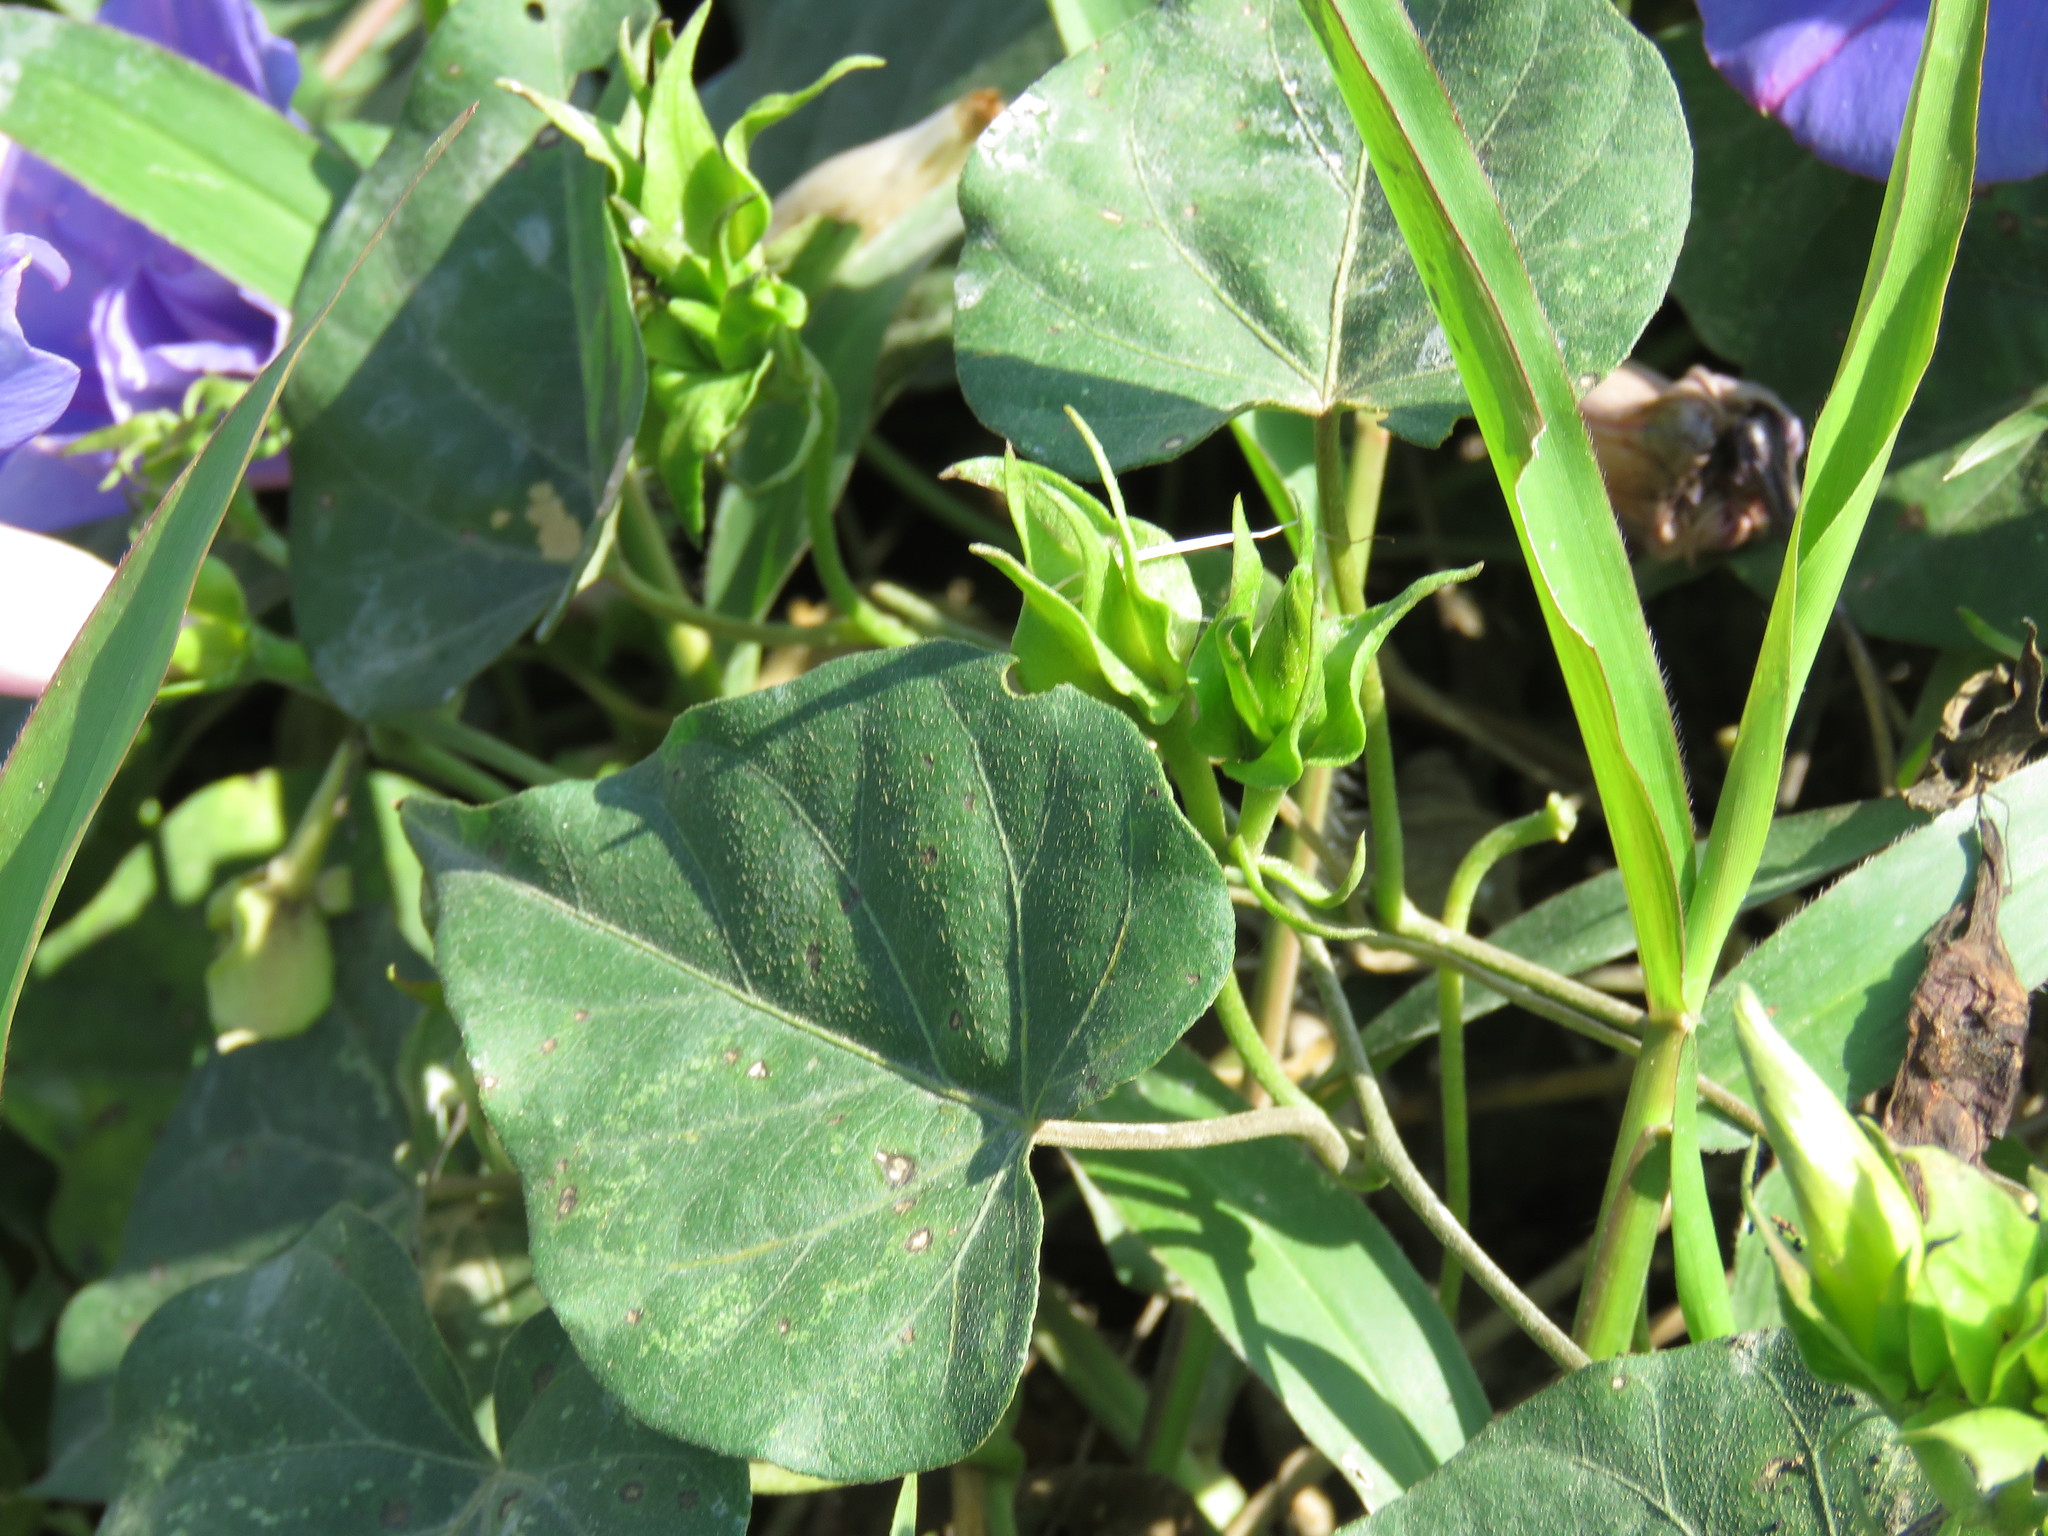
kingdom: Plantae
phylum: Tracheophyta
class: Magnoliopsida
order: Solanales
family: Convolvulaceae
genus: Ipomoea
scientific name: Ipomoea indica
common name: Blue dawnflower
